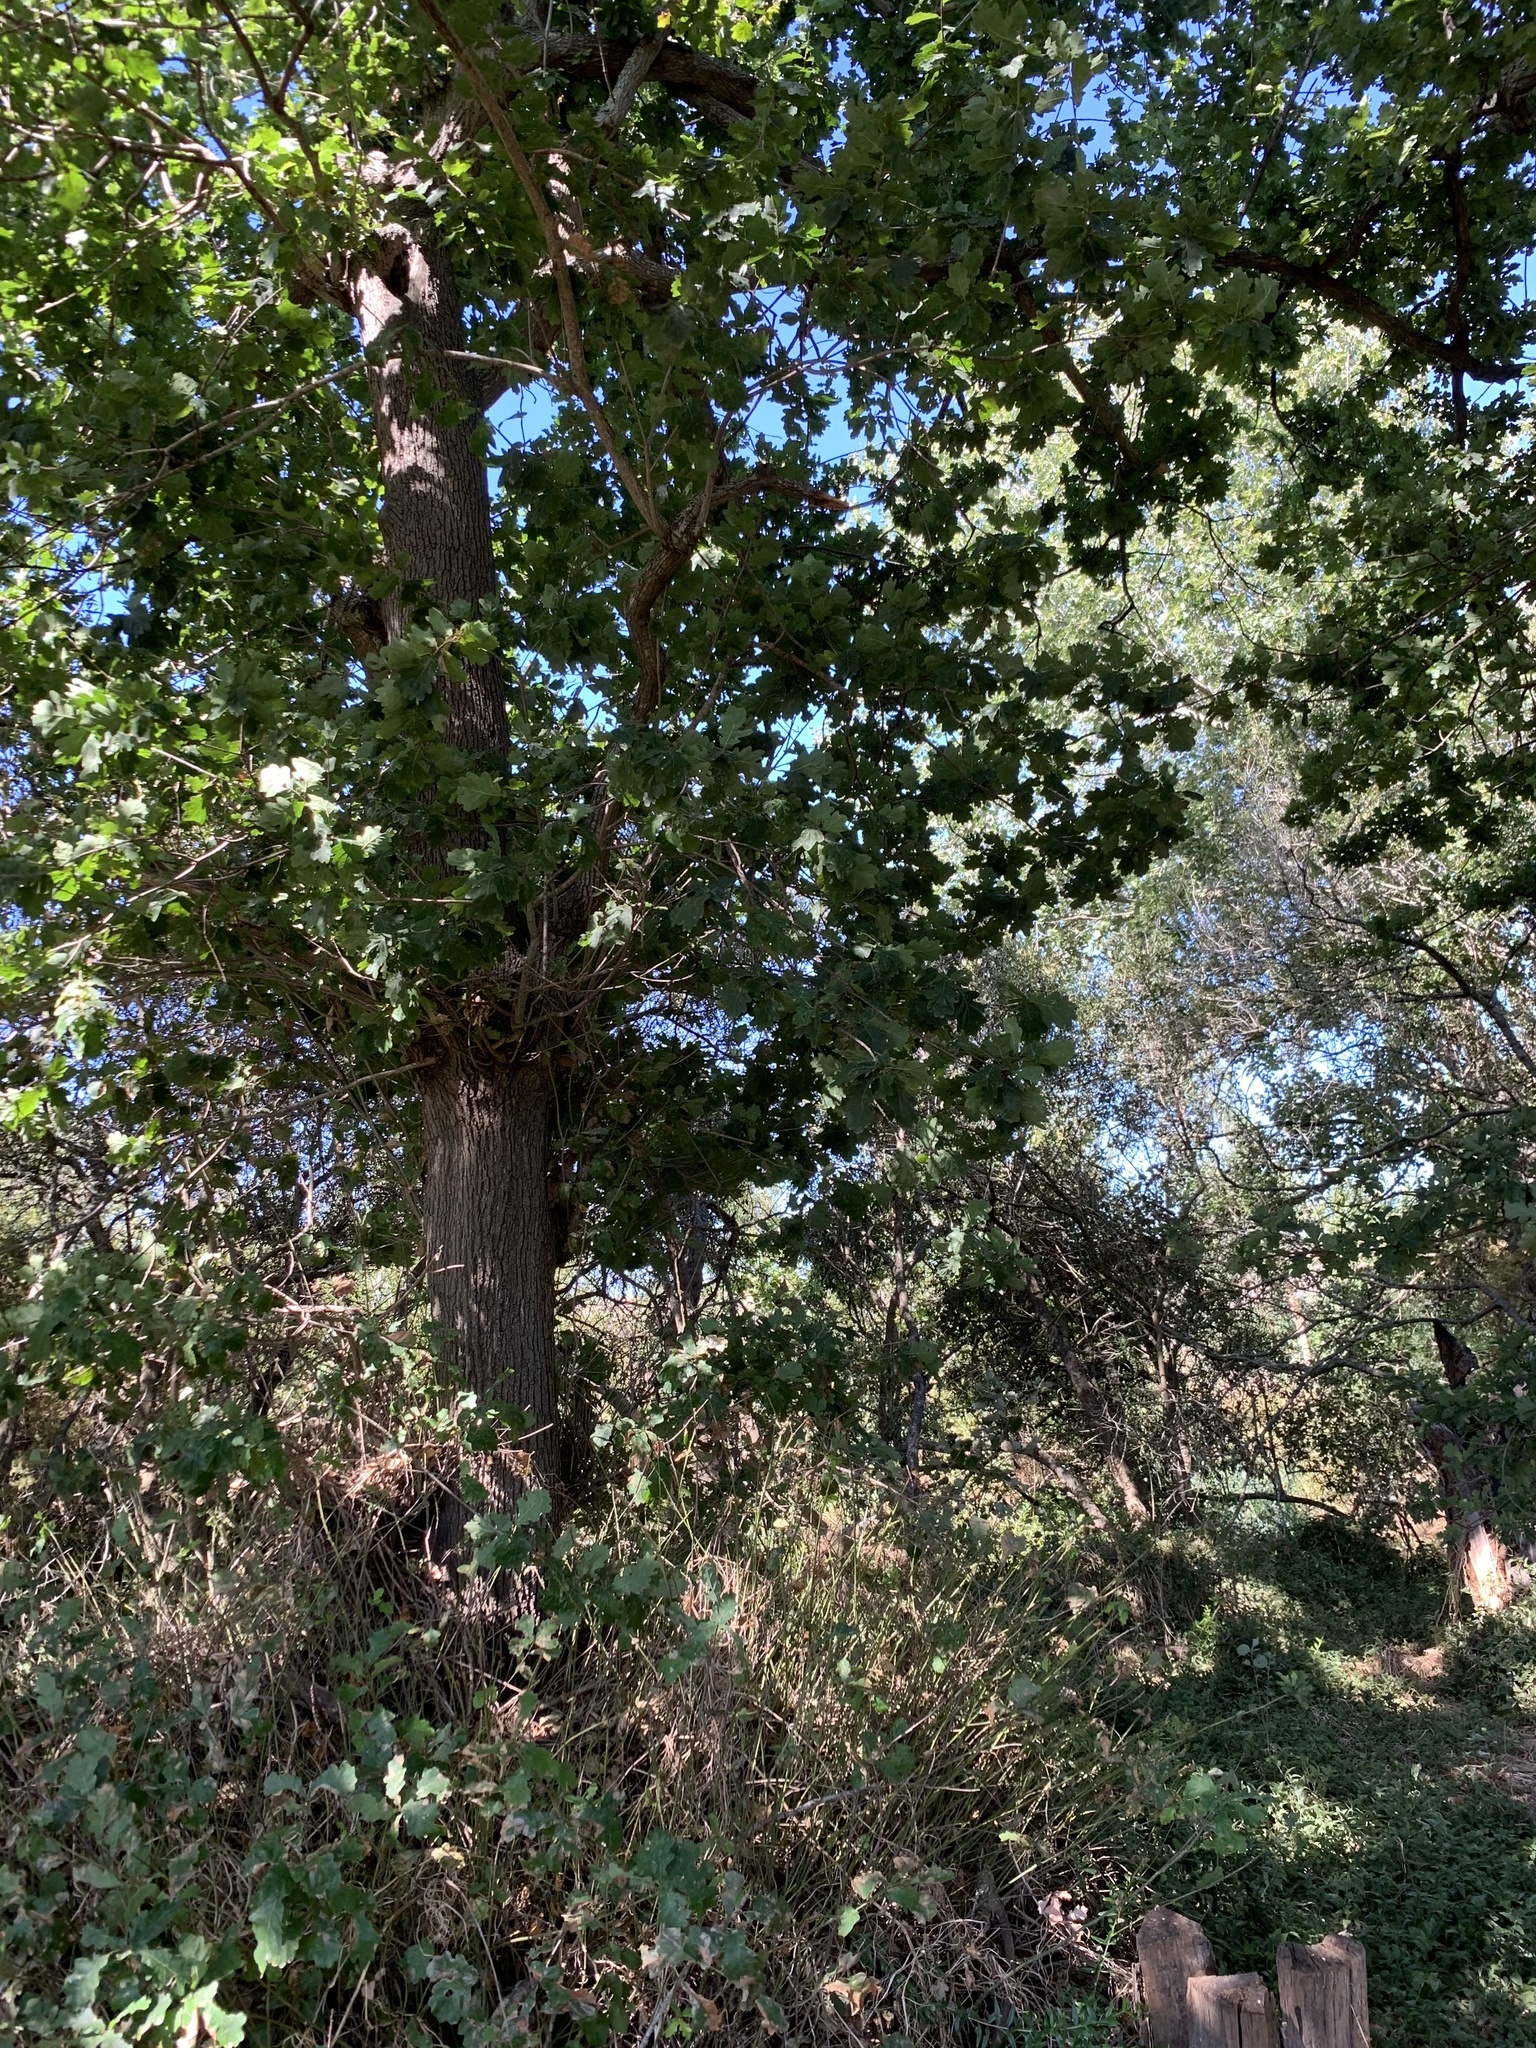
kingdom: Plantae
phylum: Tracheophyta
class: Magnoliopsida
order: Fagales
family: Fagaceae
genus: Quercus
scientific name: Quercus robur
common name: Pedunculate oak
